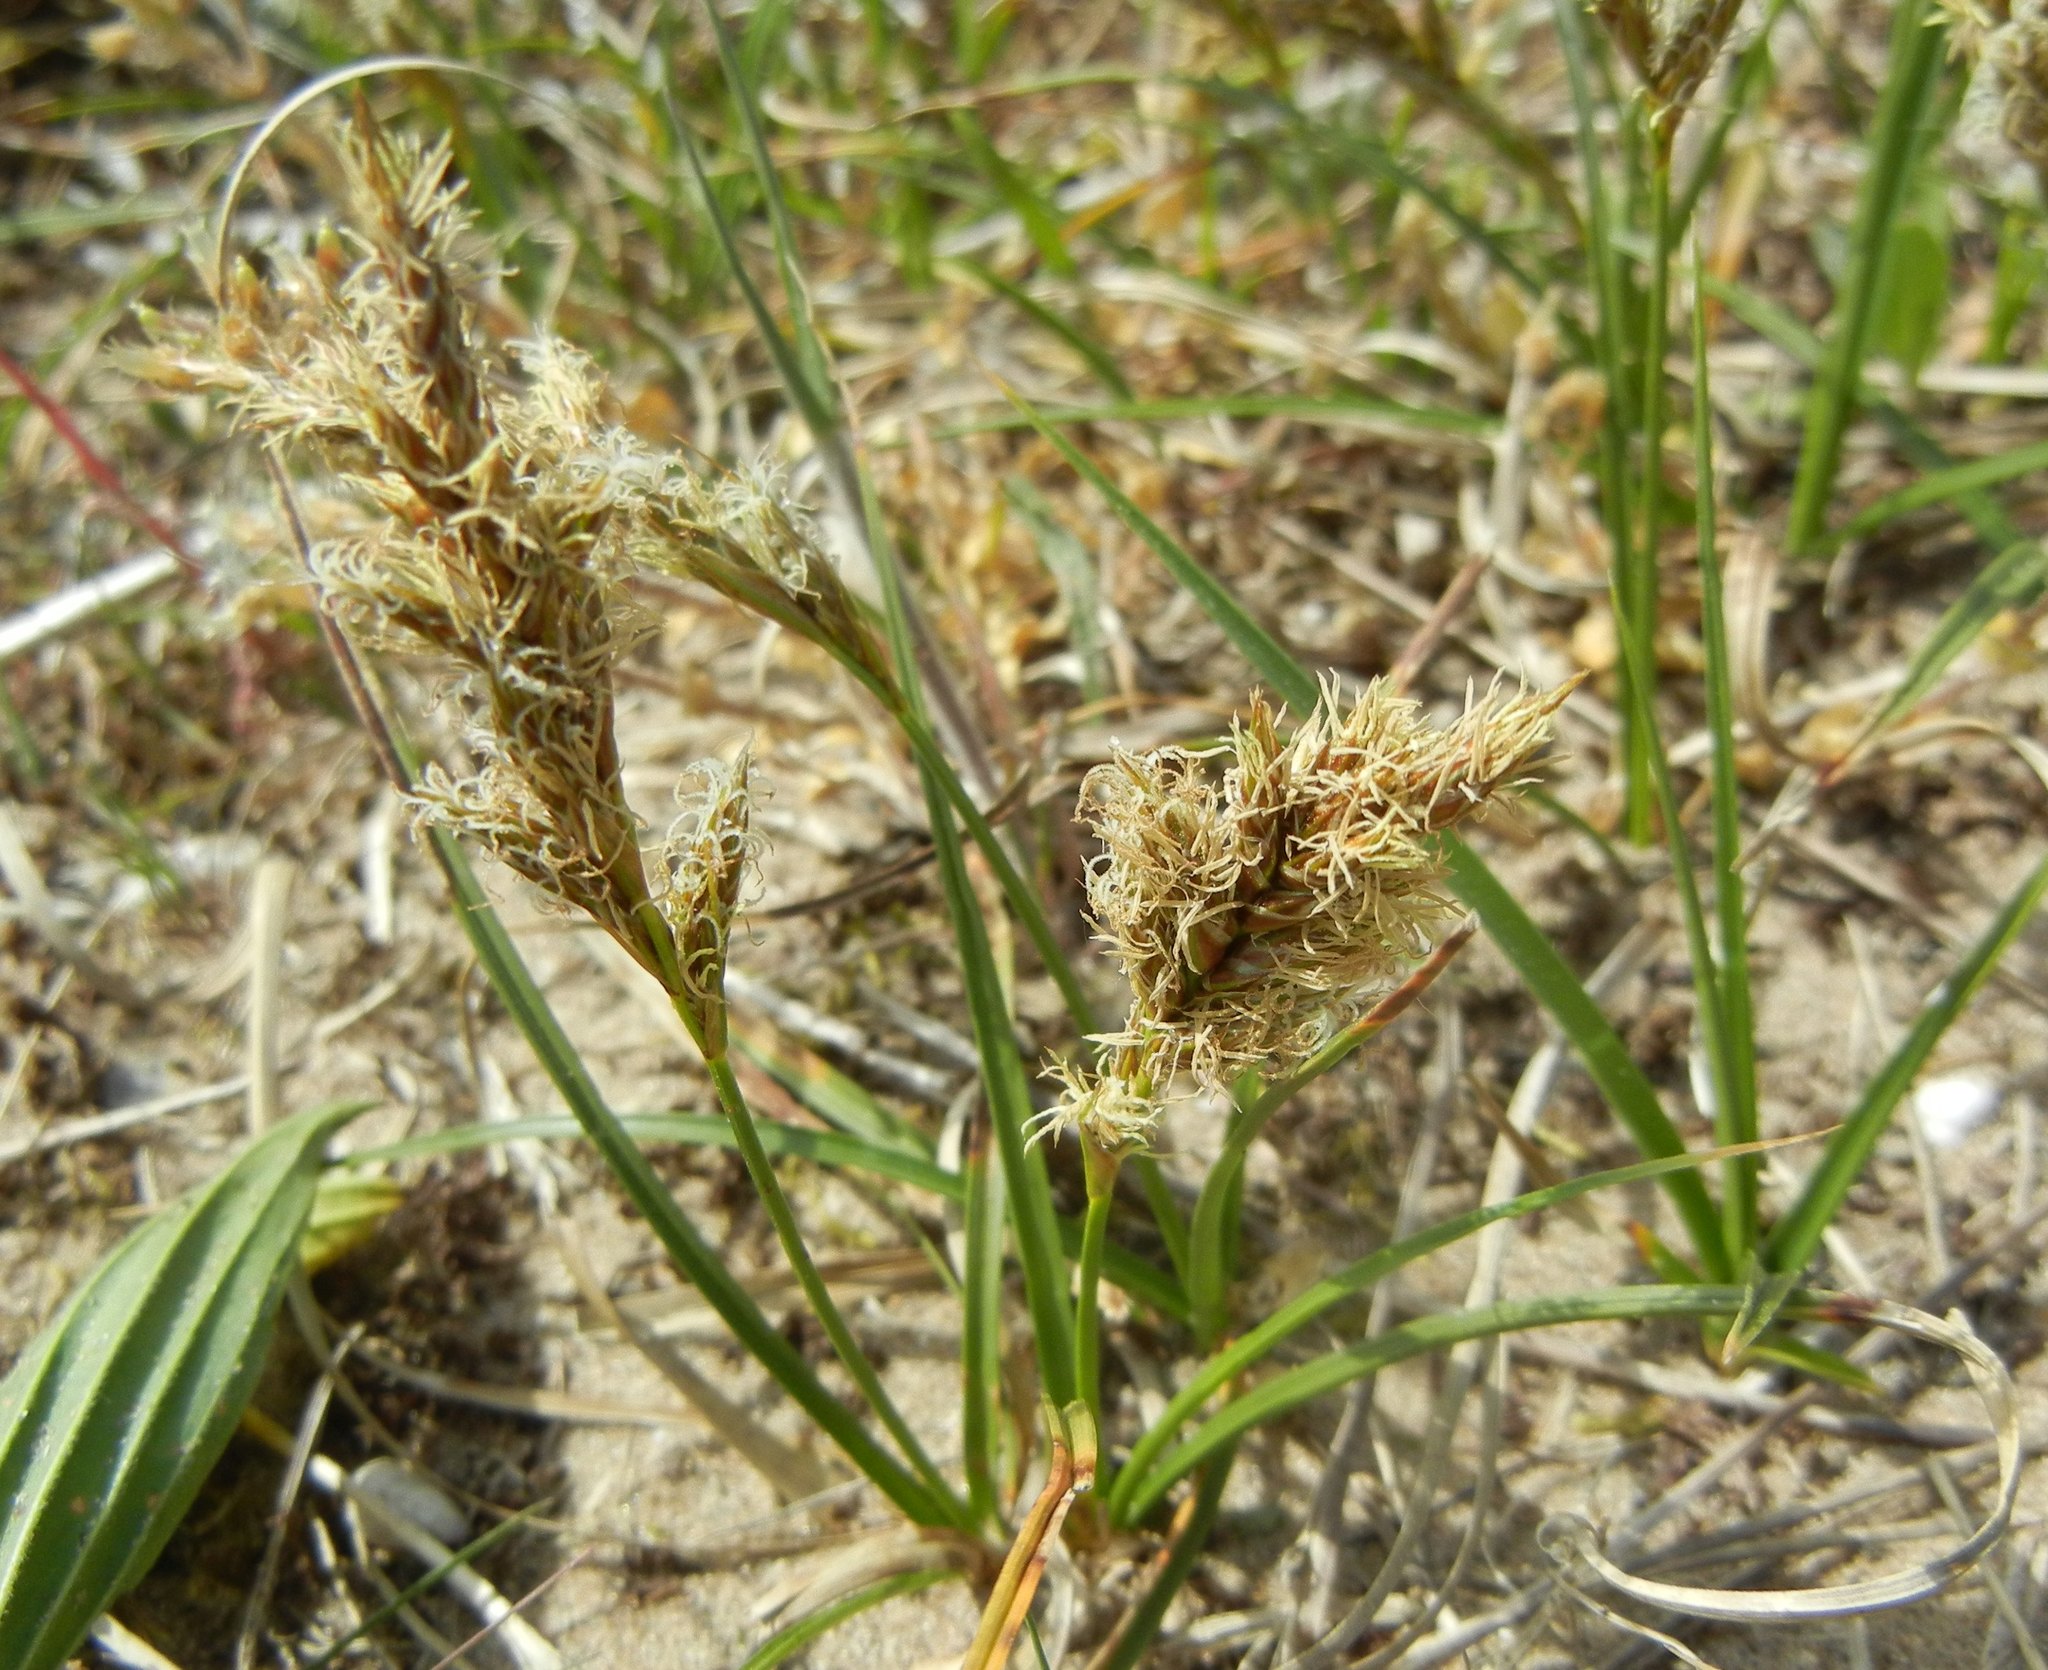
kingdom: Plantae
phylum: Tracheophyta
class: Liliopsida
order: Poales
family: Cyperaceae
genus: Carex
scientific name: Carex arenaria
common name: Sand sedge
